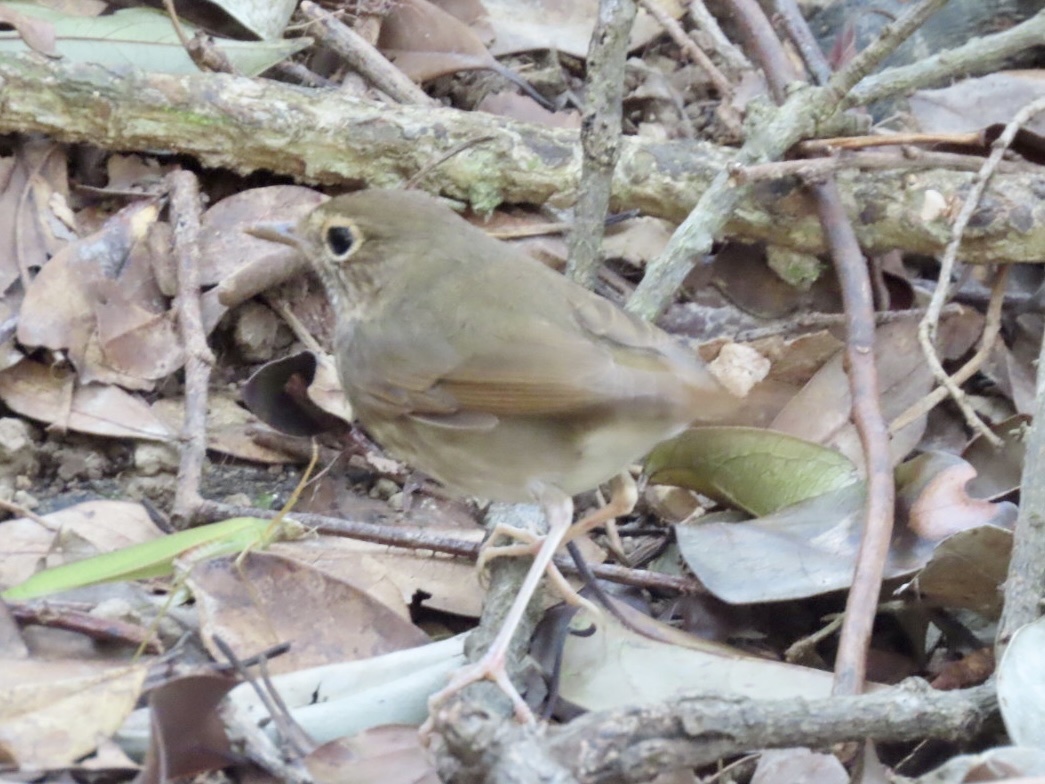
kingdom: Animalia
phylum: Chordata
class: Aves
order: Passeriformes
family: Muscicapidae
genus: Larvivora
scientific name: Larvivora sibilans
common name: Rufous-tailed robin
